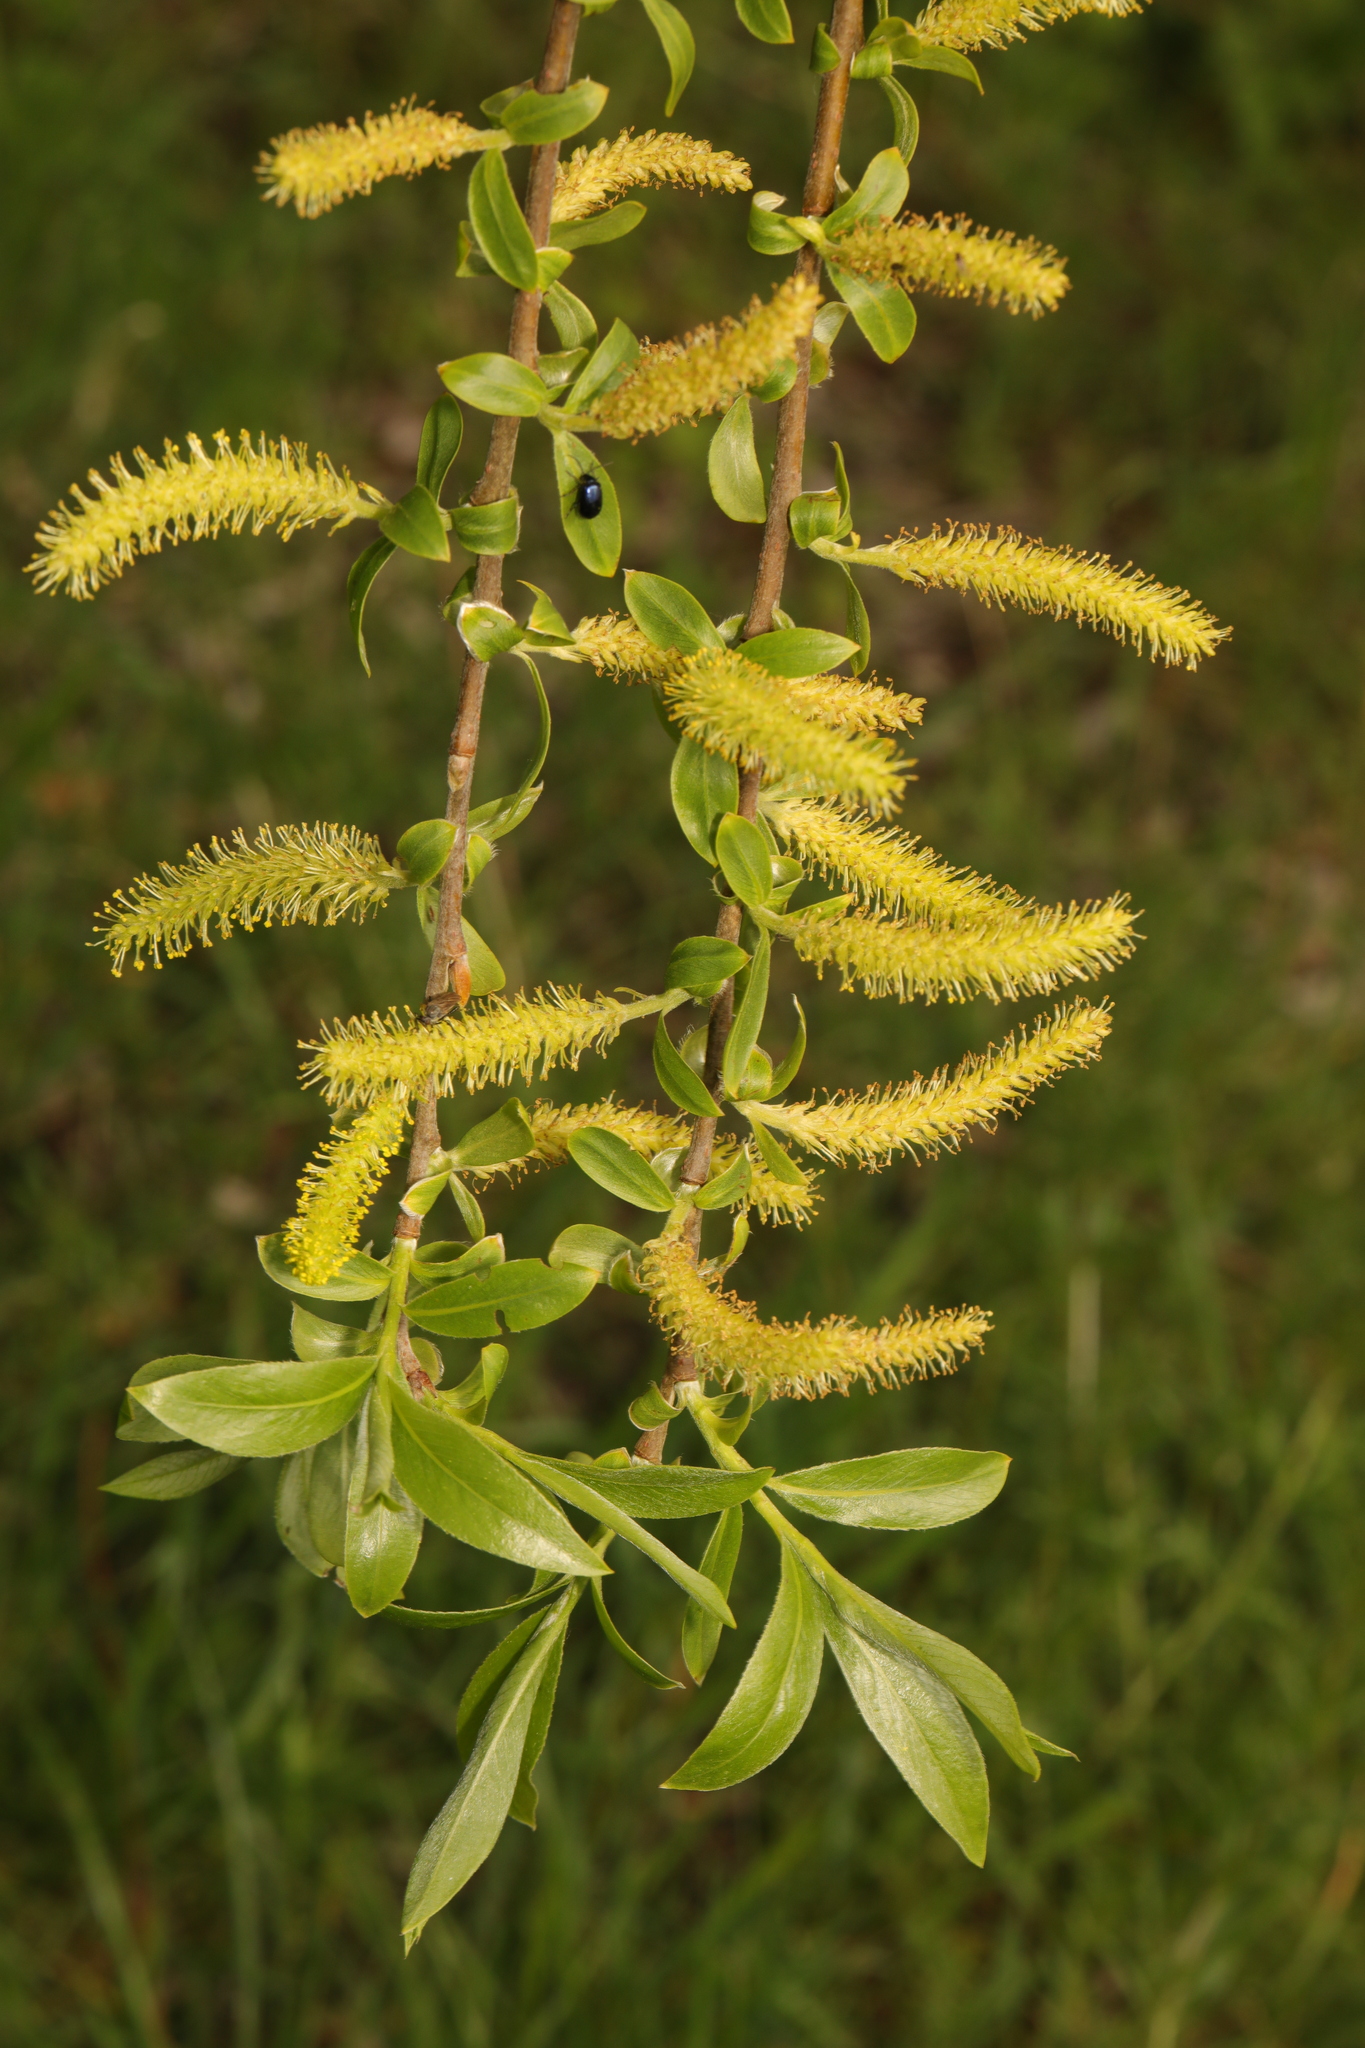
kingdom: Plantae
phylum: Tracheophyta
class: Magnoliopsida
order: Malpighiales
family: Salicaceae
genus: Salix
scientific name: Salix alba
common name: White willow
